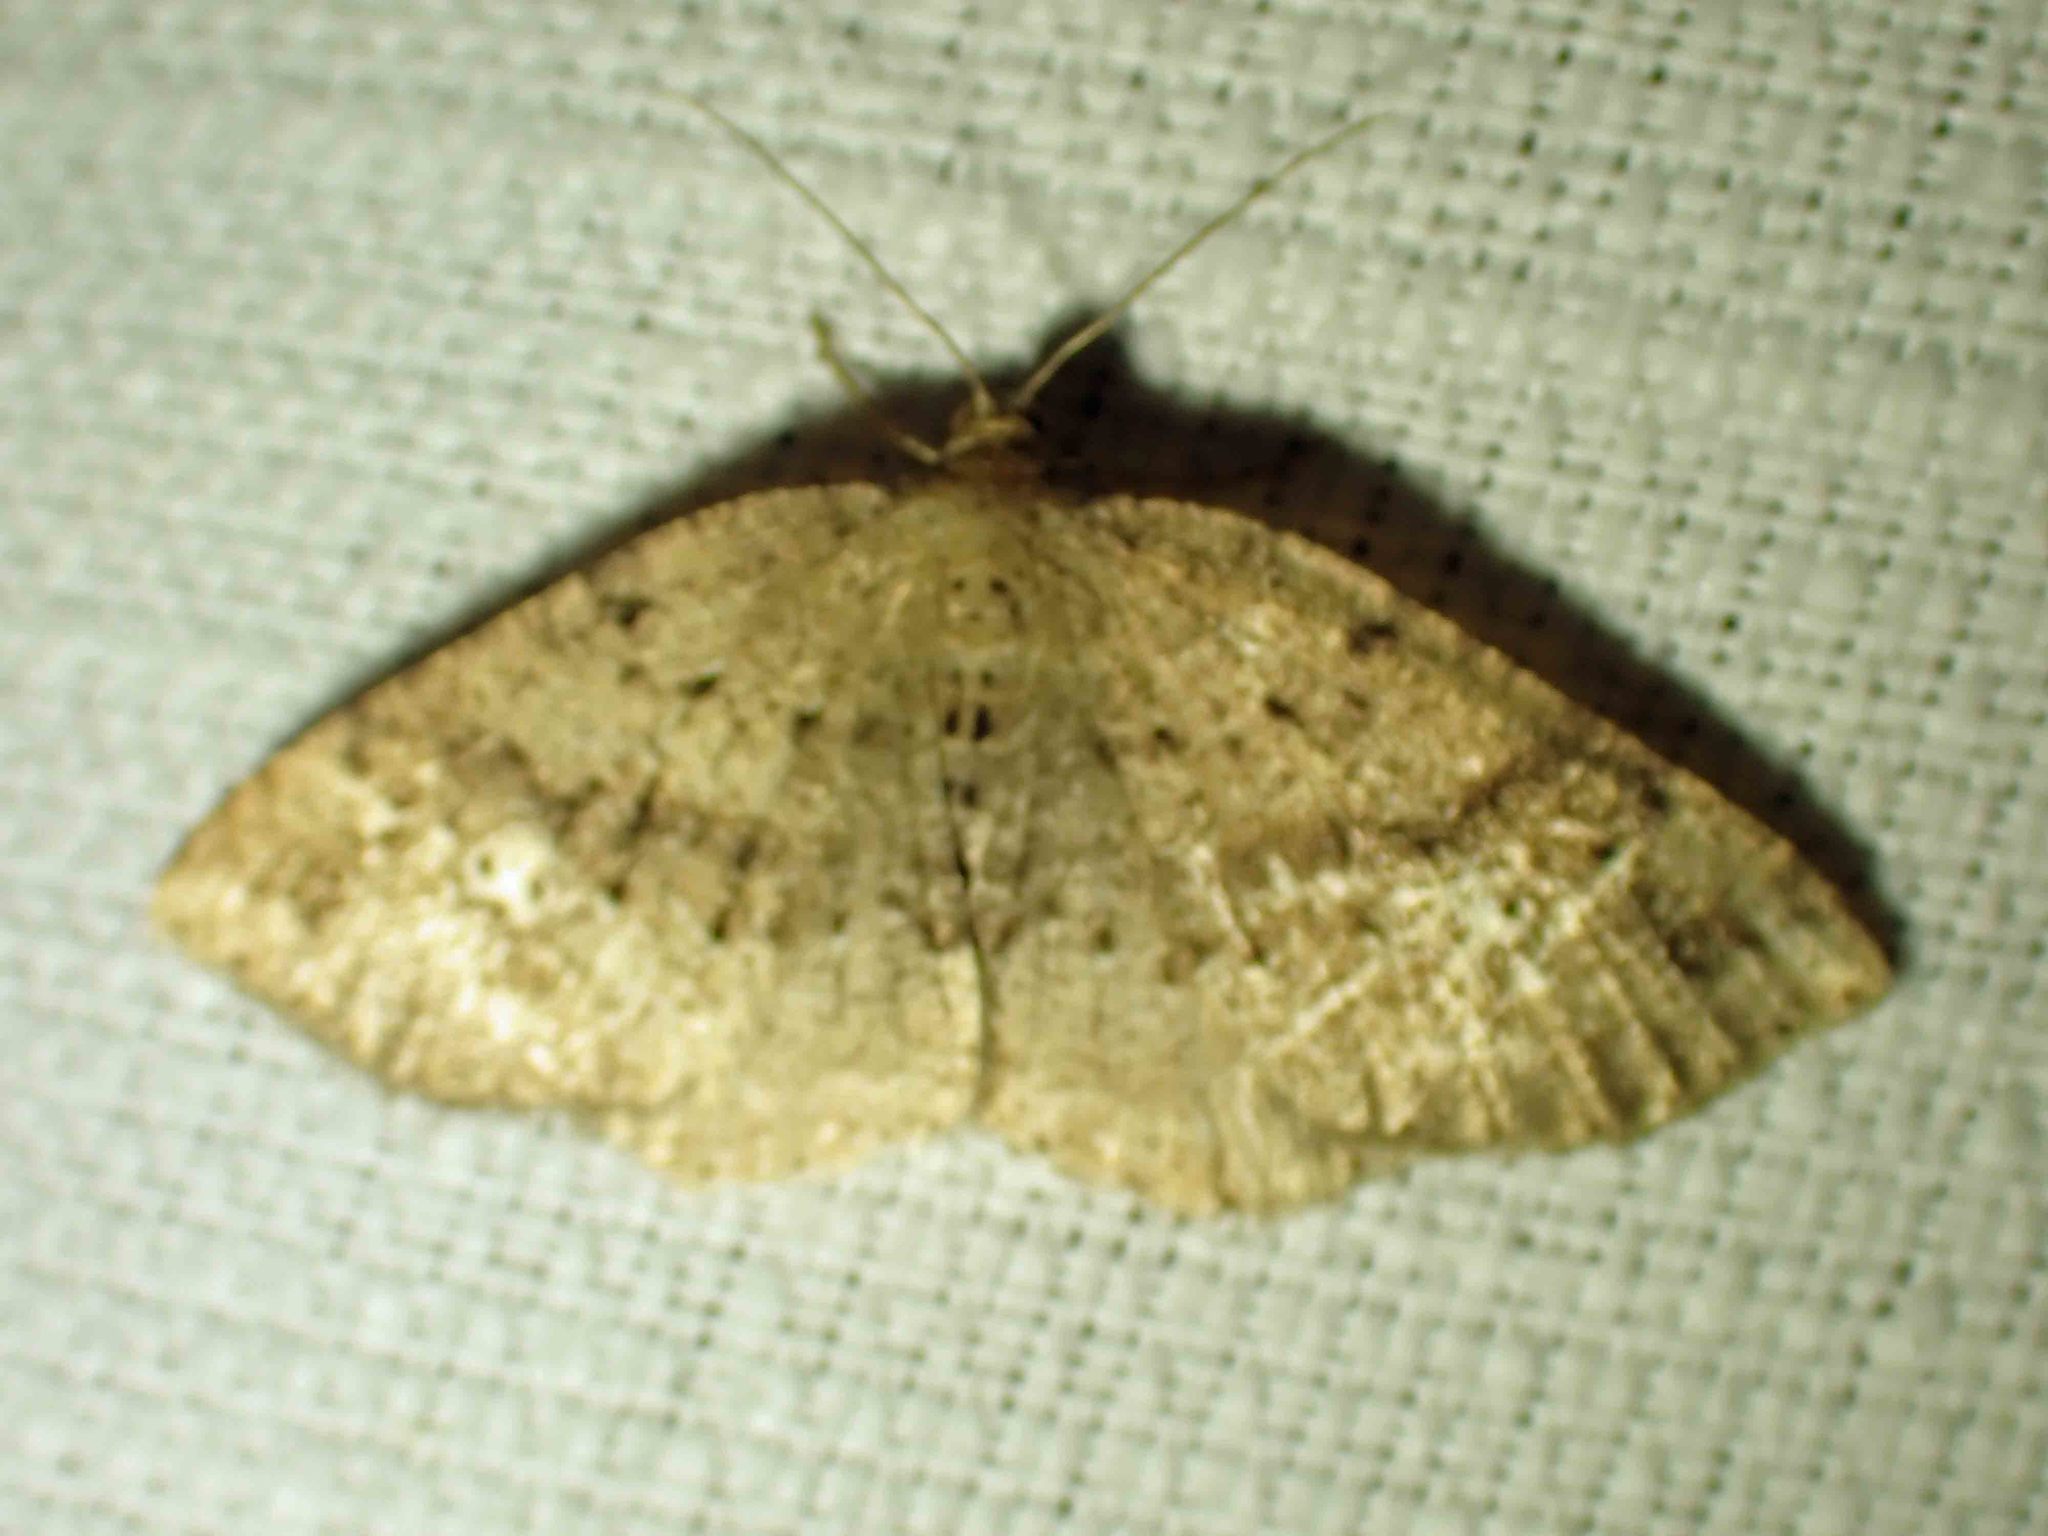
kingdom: Animalia
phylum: Arthropoda
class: Insecta
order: Lepidoptera
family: Geometridae
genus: Homochlodes
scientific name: Homochlodes fritillaria
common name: Pale homochlodes
